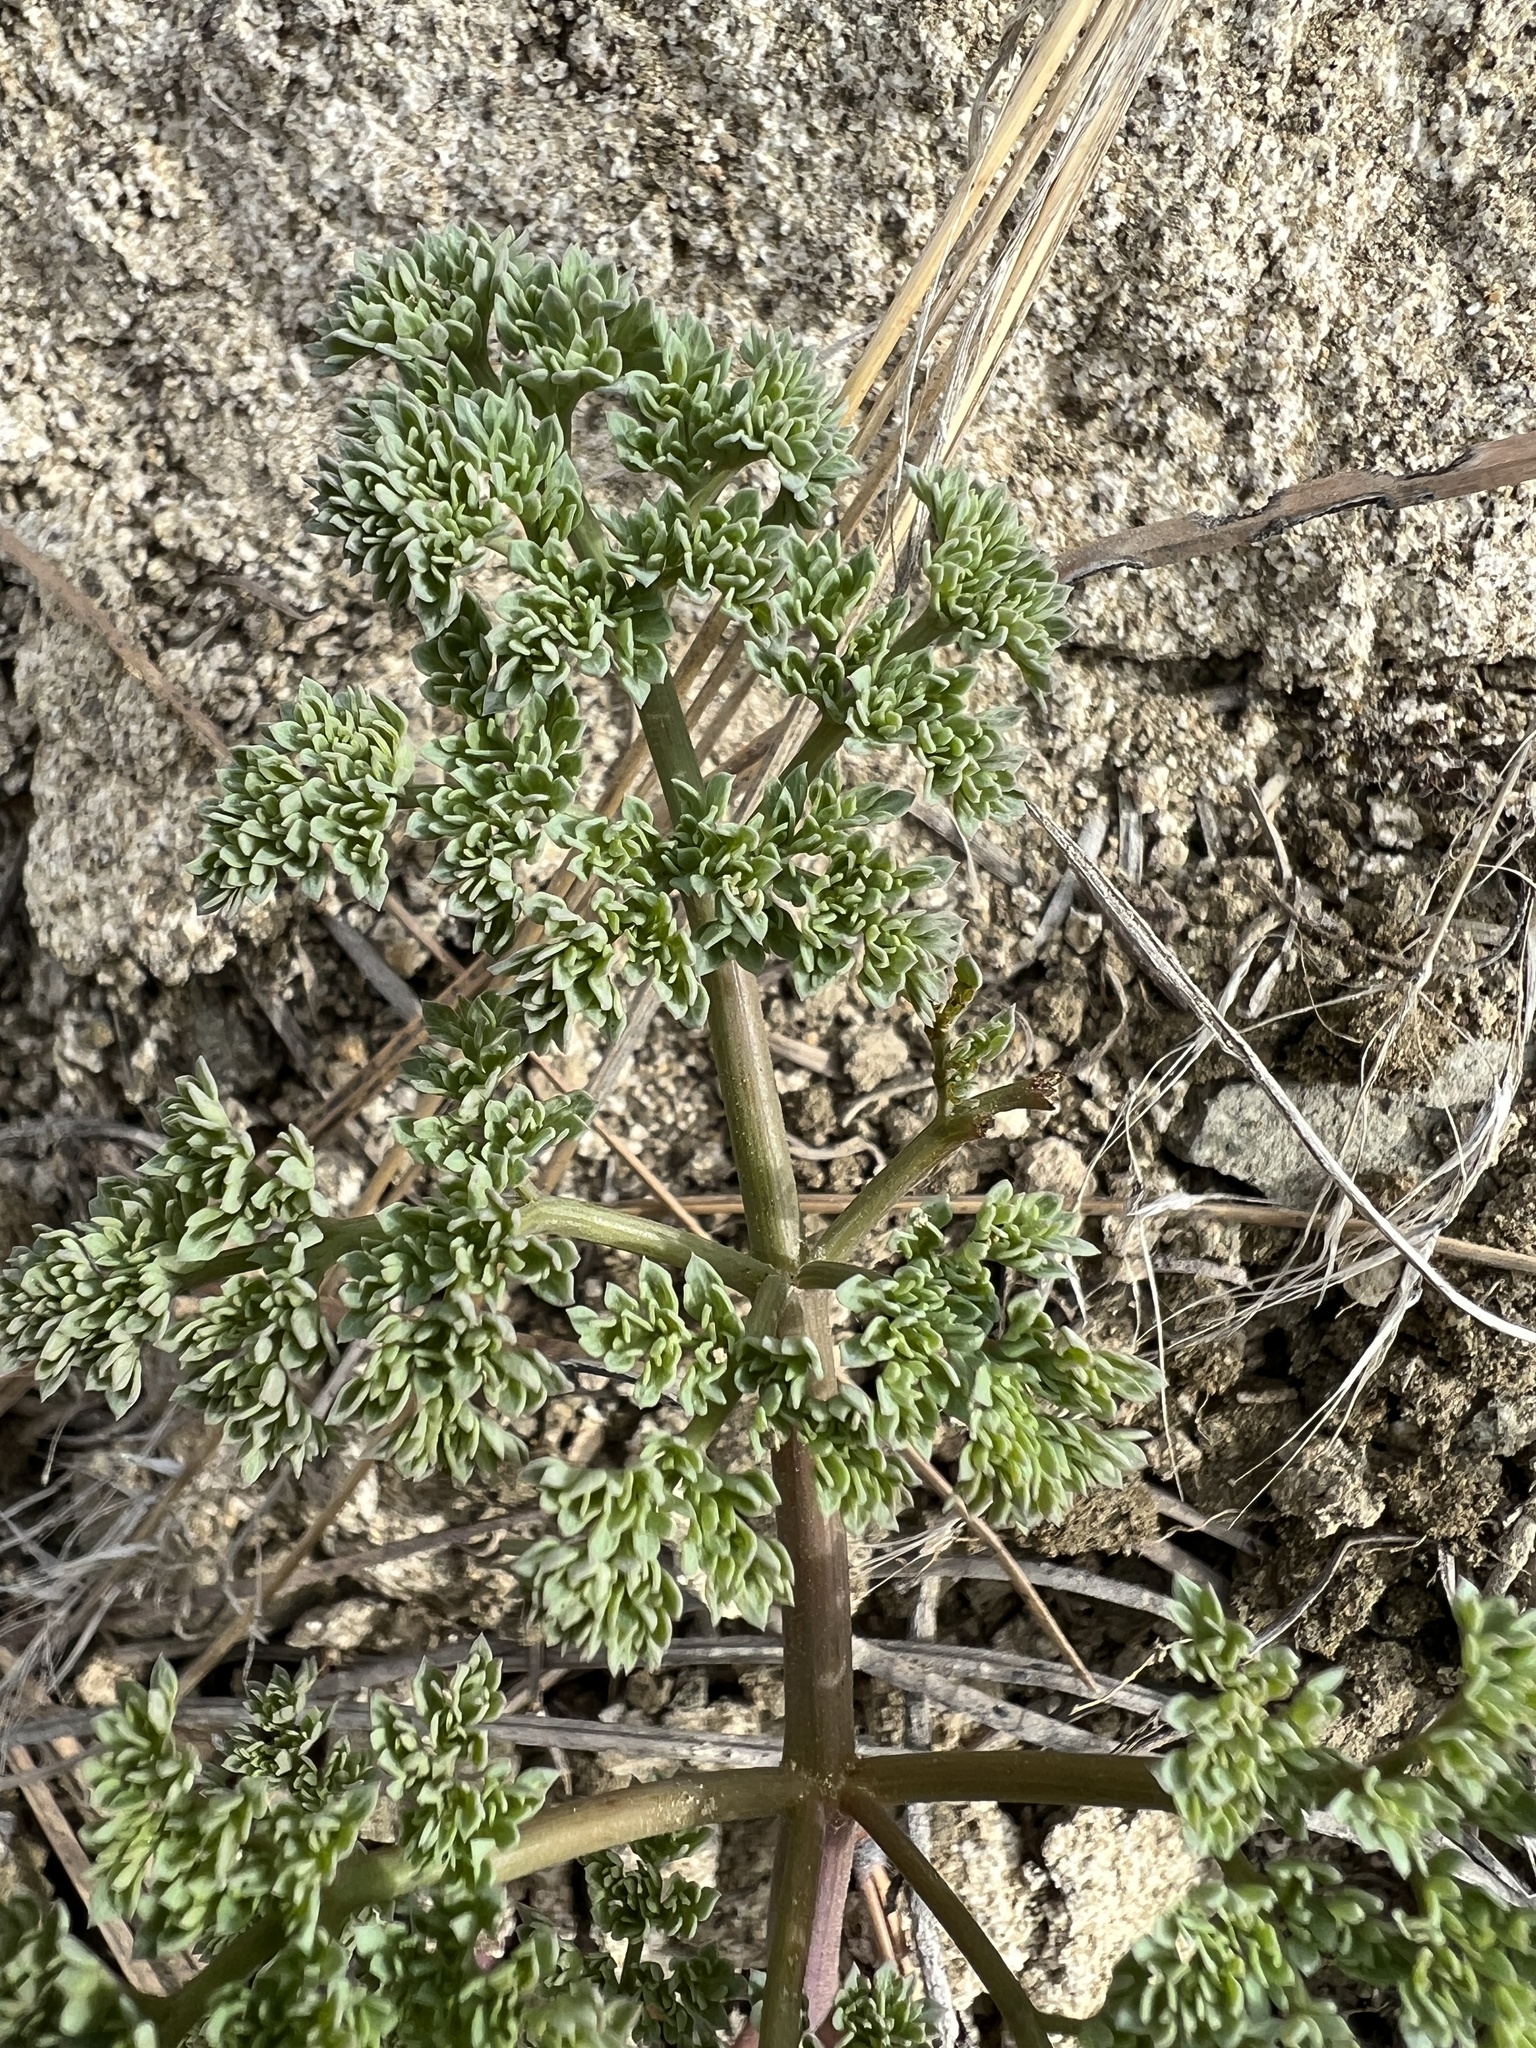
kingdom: Plantae
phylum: Tracheophyta
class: Magnoliopsida
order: Apiales
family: Apiaceae
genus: Lomatium
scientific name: Lomatium roneorum
